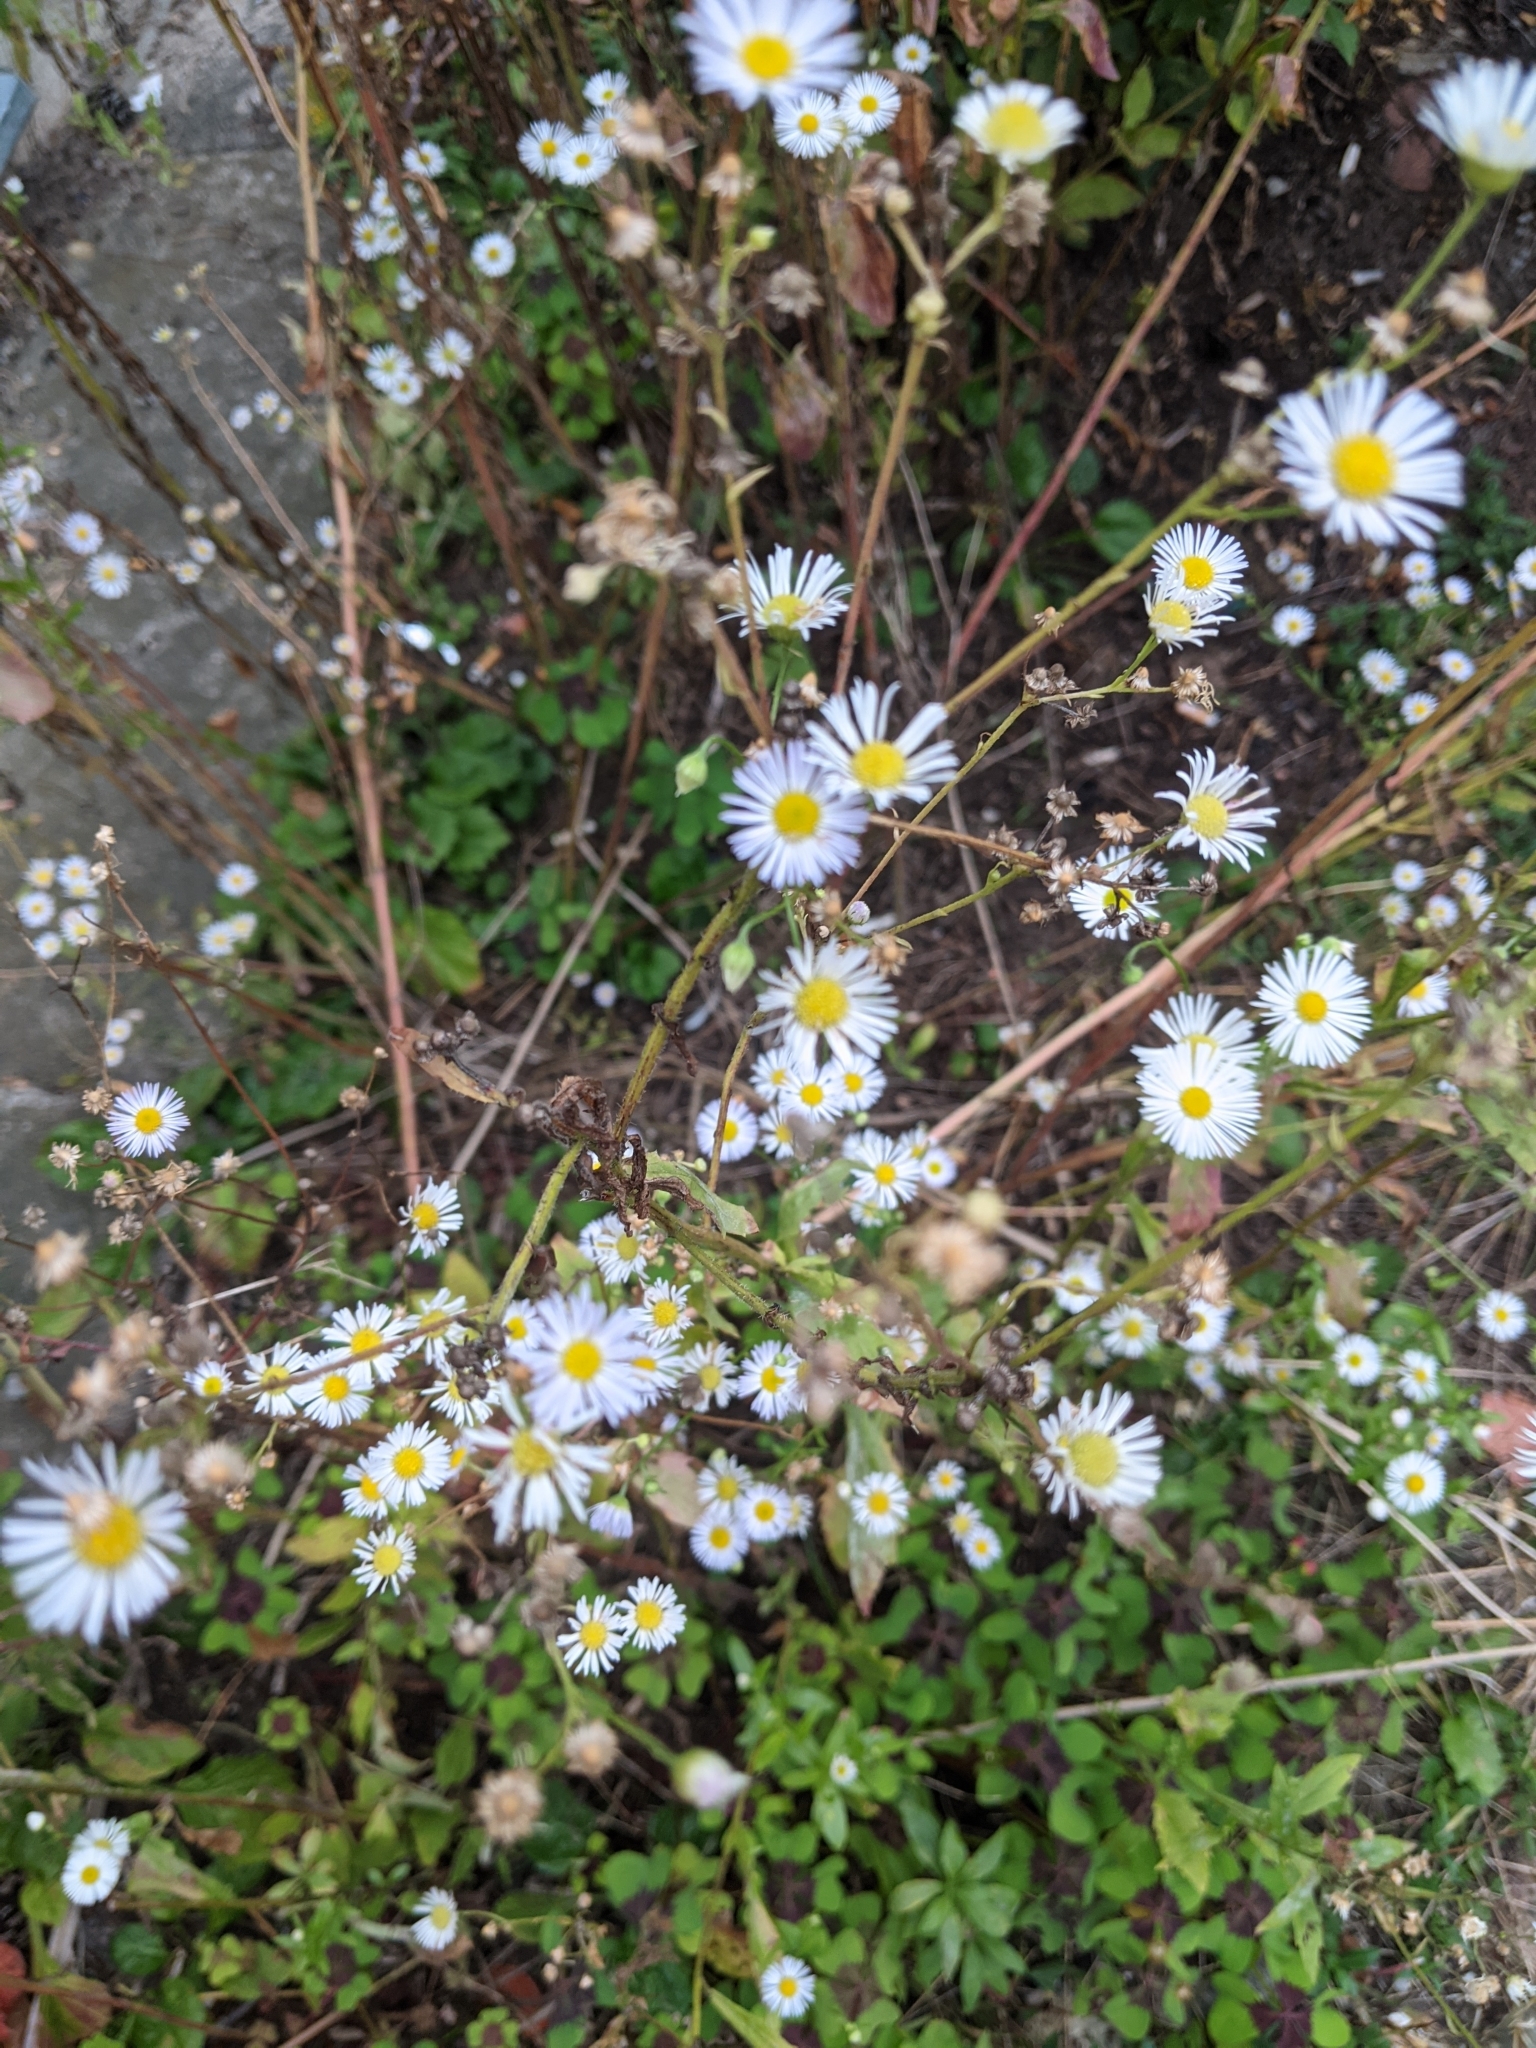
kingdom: Plantae
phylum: Tracheophyta
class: Magnoliopsida
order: Asterales
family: Asteraceae
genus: Erigeron
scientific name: Erigeron annuus
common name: Tall fleabane
